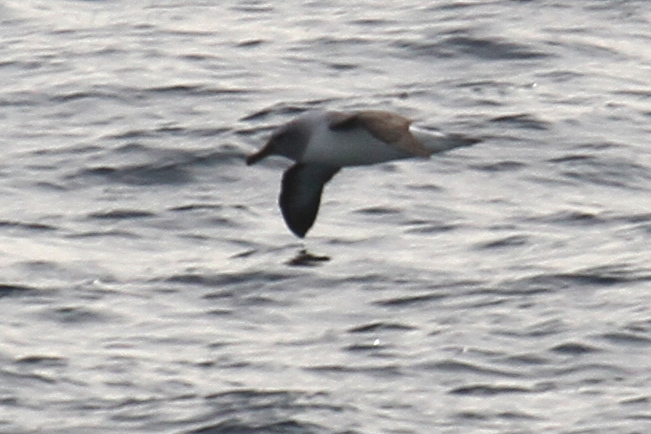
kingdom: Animalia
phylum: Chordata
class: Aves
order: Procellariiformes
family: Diomedeidae
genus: Thalassarche
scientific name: Thalassarche chrysostoma
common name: Grey-headed albatross
